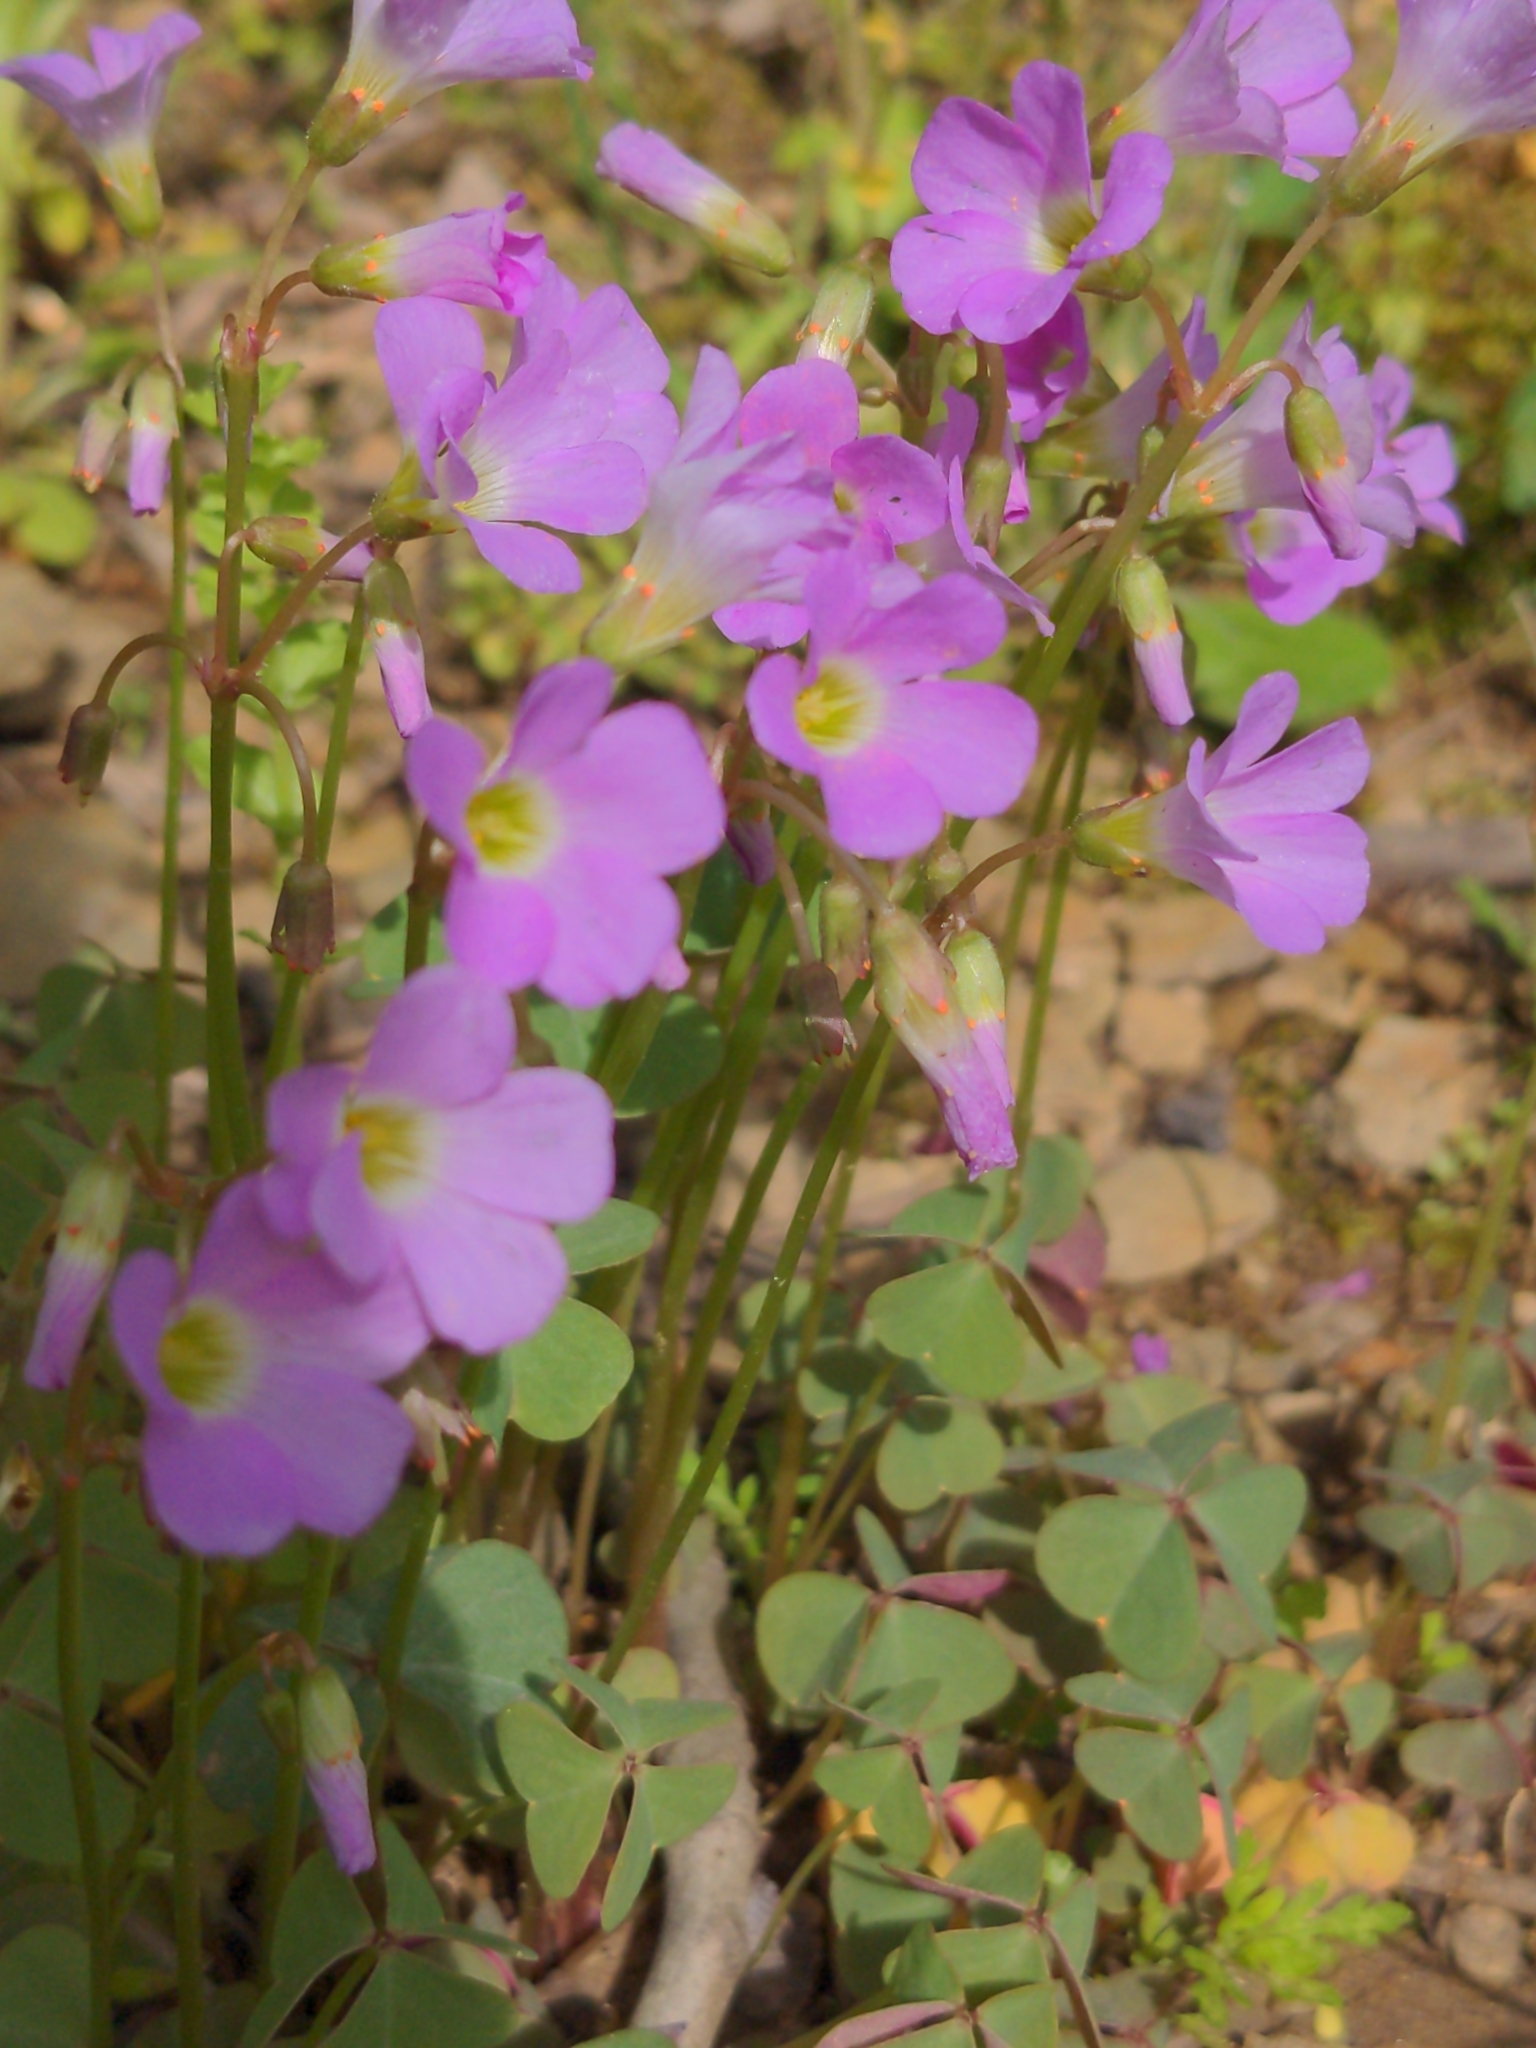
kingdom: Plantae
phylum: Tracheophyta
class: Magnoliopsida
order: Oxalidales
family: Oxalidaceae
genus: Oxalis
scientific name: Oxalis violacea
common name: Violet wood-sorrel
